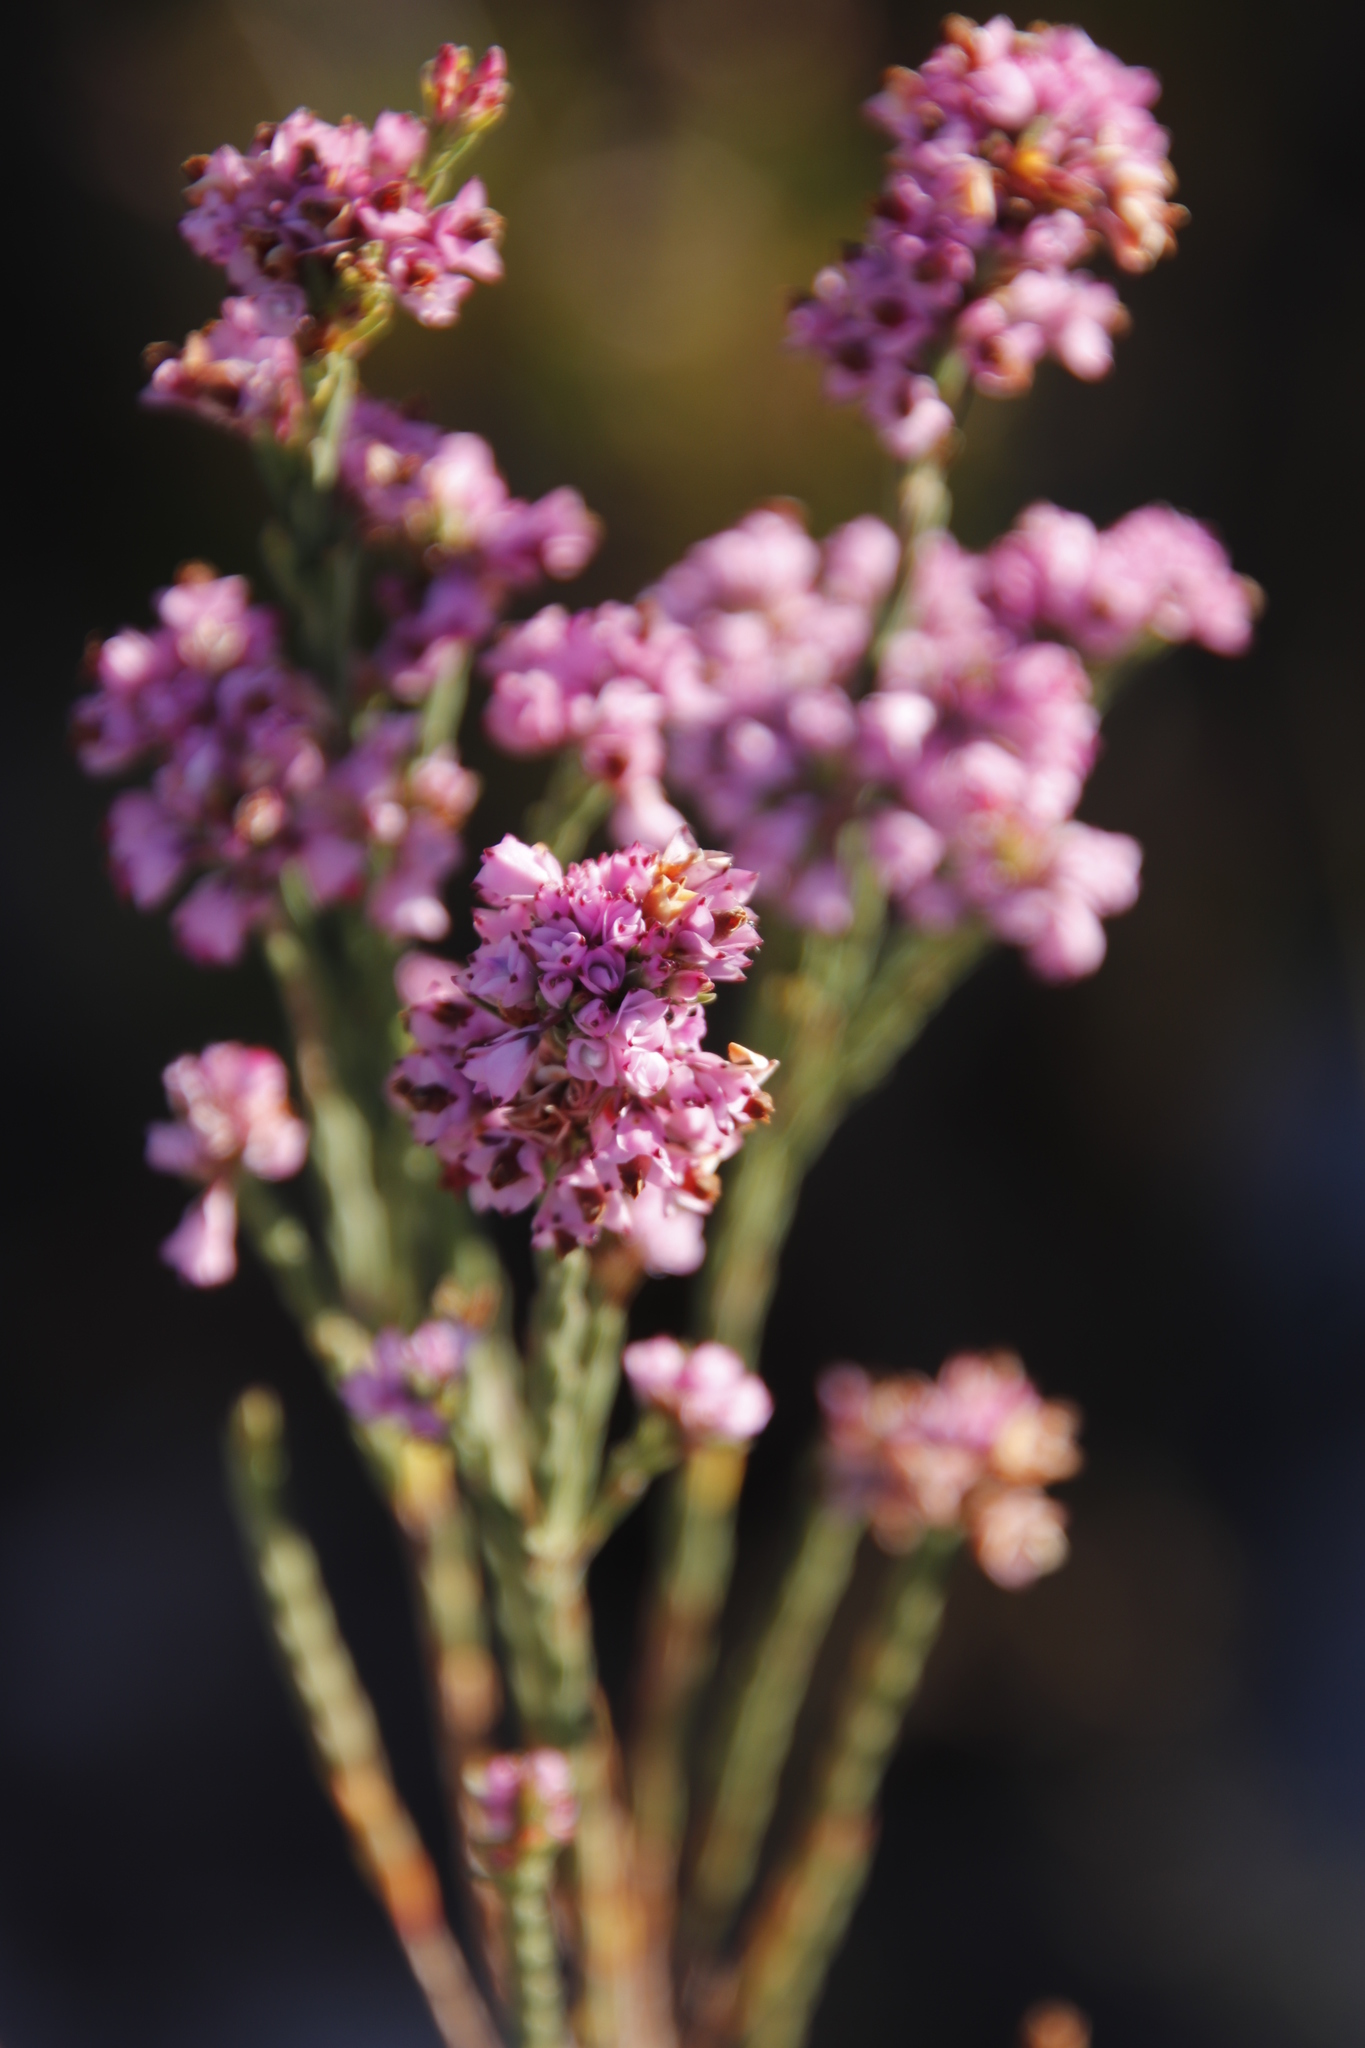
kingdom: Plantae
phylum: Tracheophyta
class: Magnoliopsida
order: Ericales
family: Ericaceae
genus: Erica
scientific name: Erica corifolia
